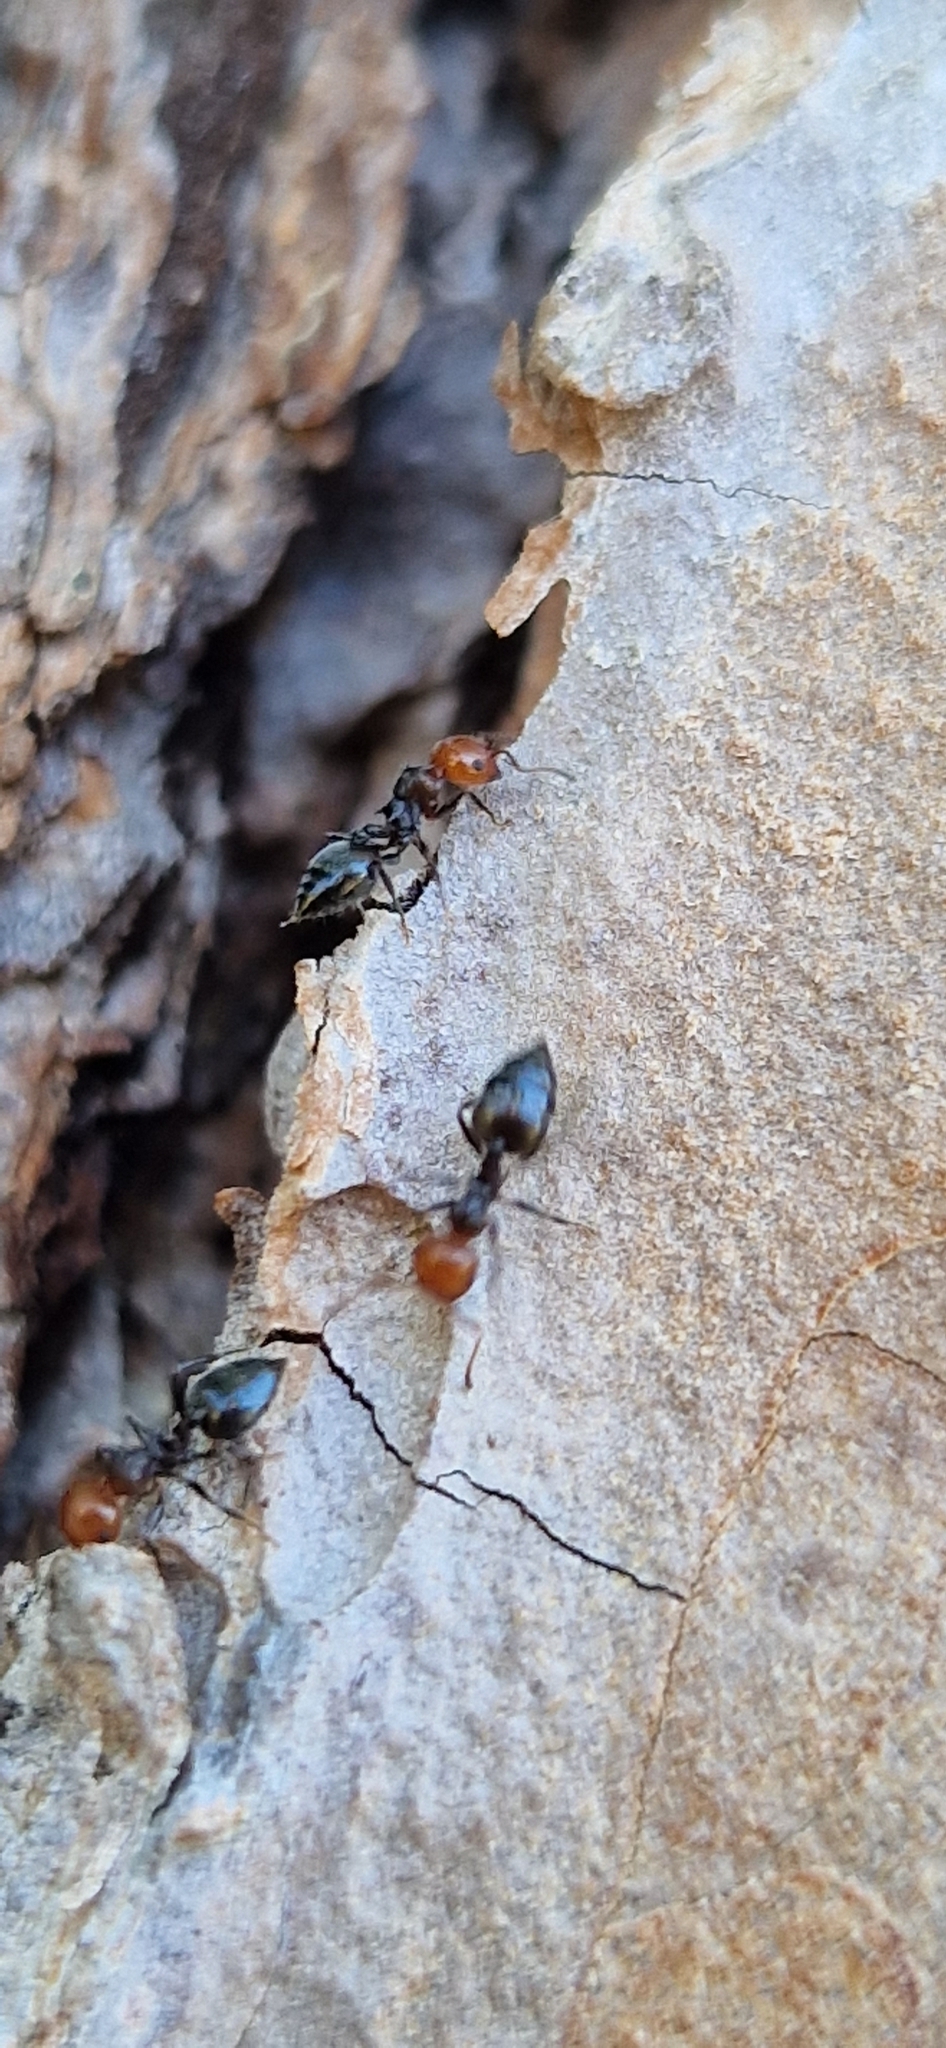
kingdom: Animalia
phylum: Arthropoda
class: Insecta
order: Hymenoptera
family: Formicidae
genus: Crematogaster
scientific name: Crematogaster scutellaris
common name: Fourmi du liège
